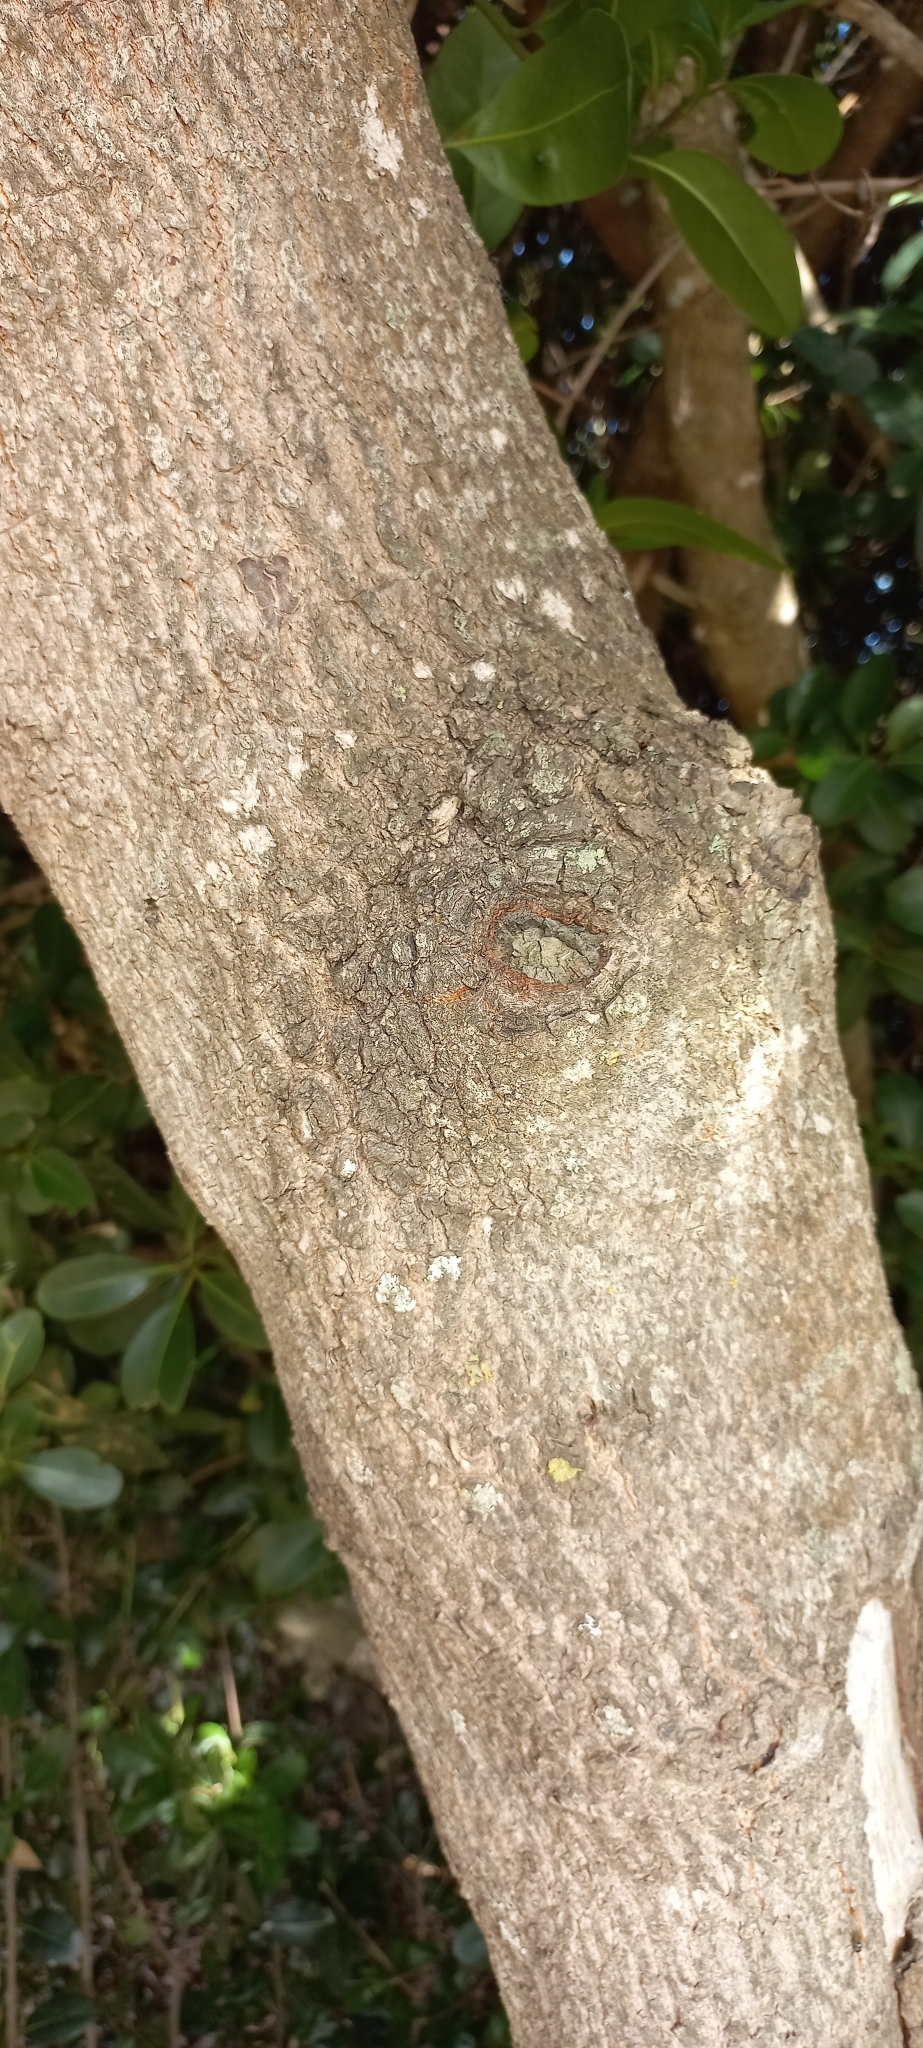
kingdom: Plantae
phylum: Tracheophyta
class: Magnoliopsida
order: Ericales
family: Sapotaceae
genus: Sideroxylon
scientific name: Sideroxylon inerme
